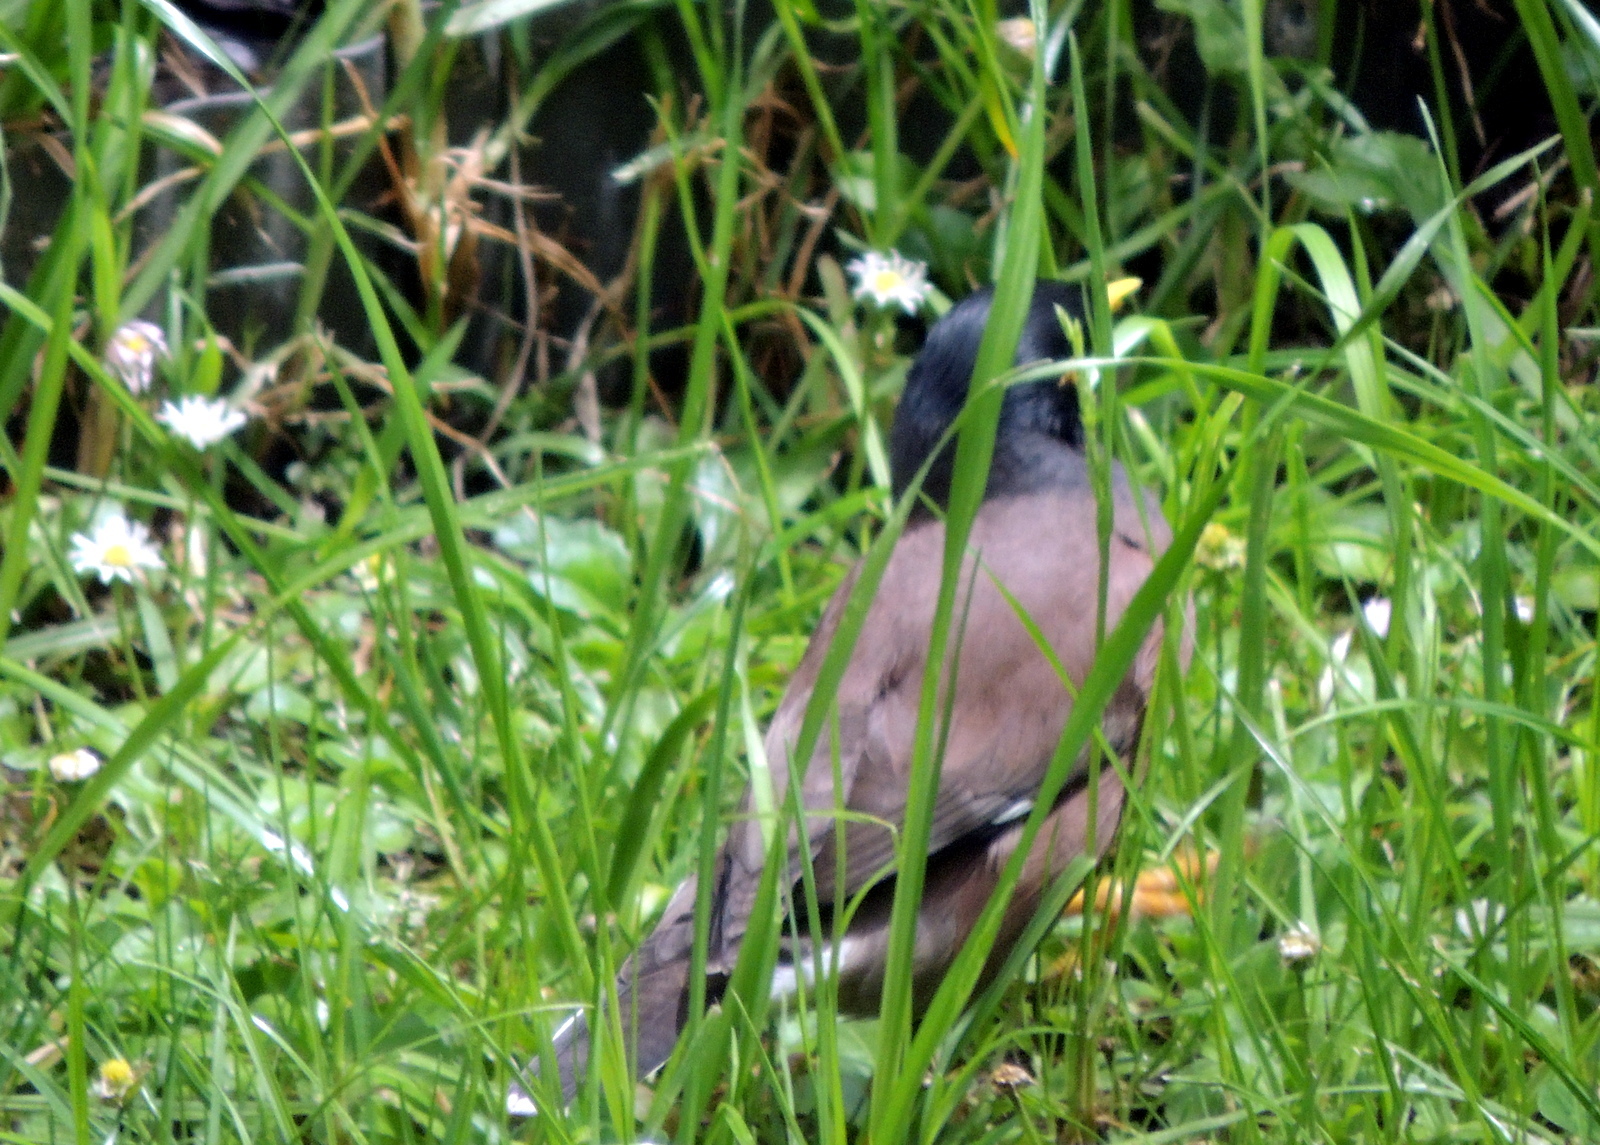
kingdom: Animalia
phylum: Chordata
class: Aves
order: Passeriformes
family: Sturnidae
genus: Acridotheres
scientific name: Acridotheres tristis
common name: Common myna
